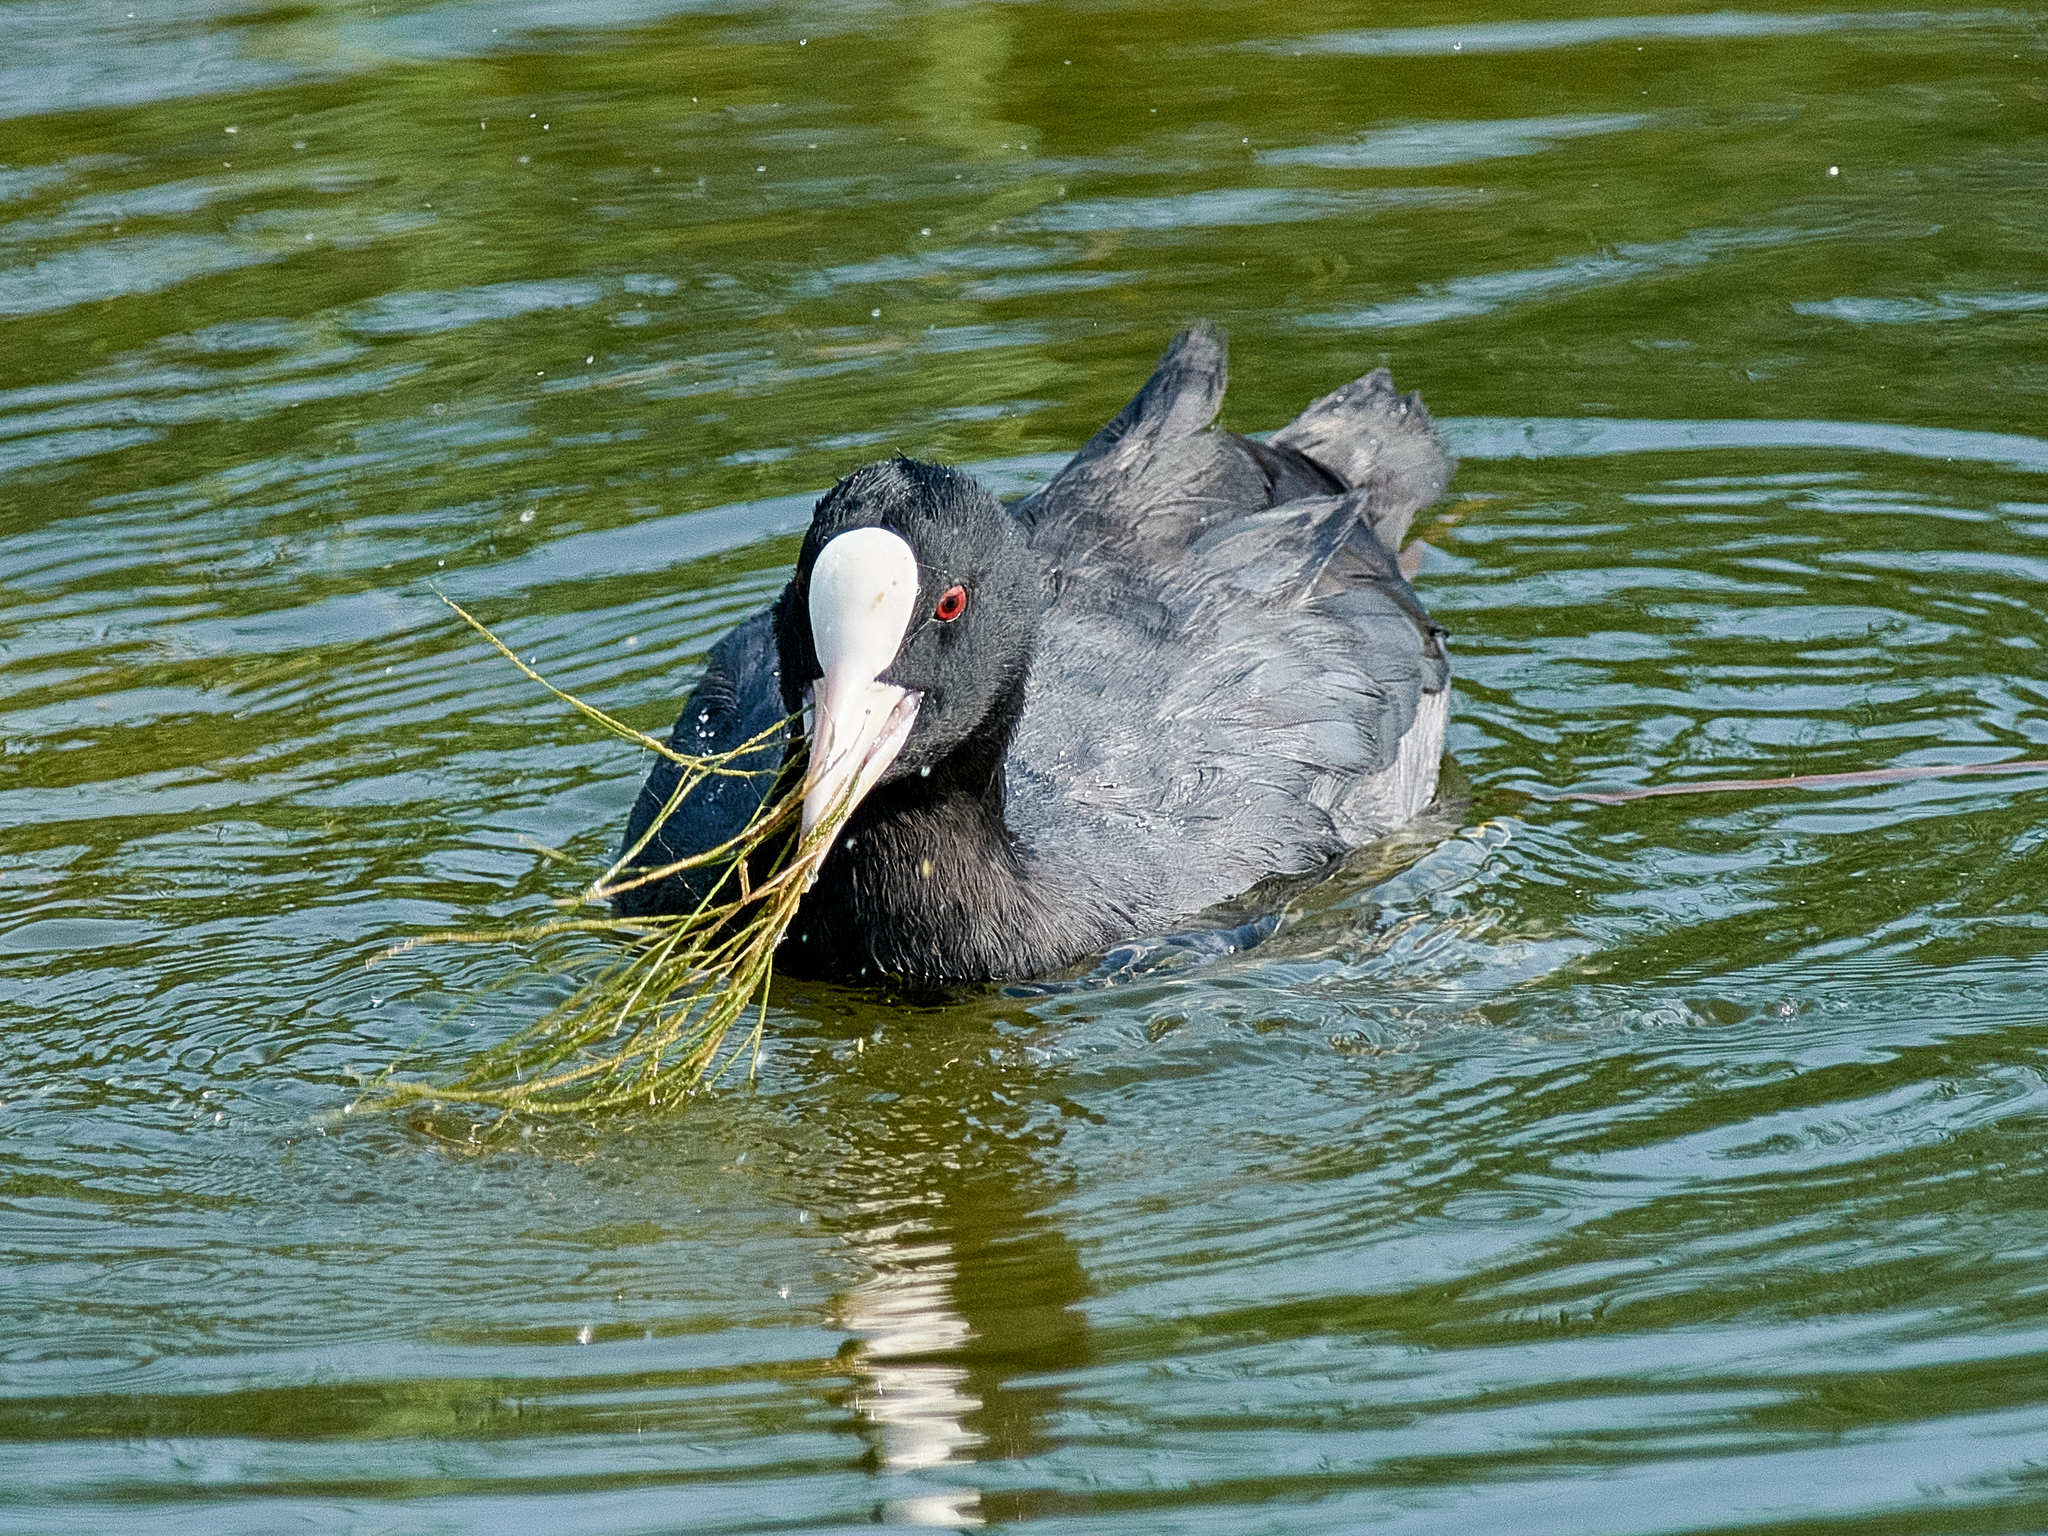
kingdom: Animalia
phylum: Chordata
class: Aves
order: Gruiformes
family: Rallidae
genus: Fulica
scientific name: Fulica atra
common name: Eurasian coot
